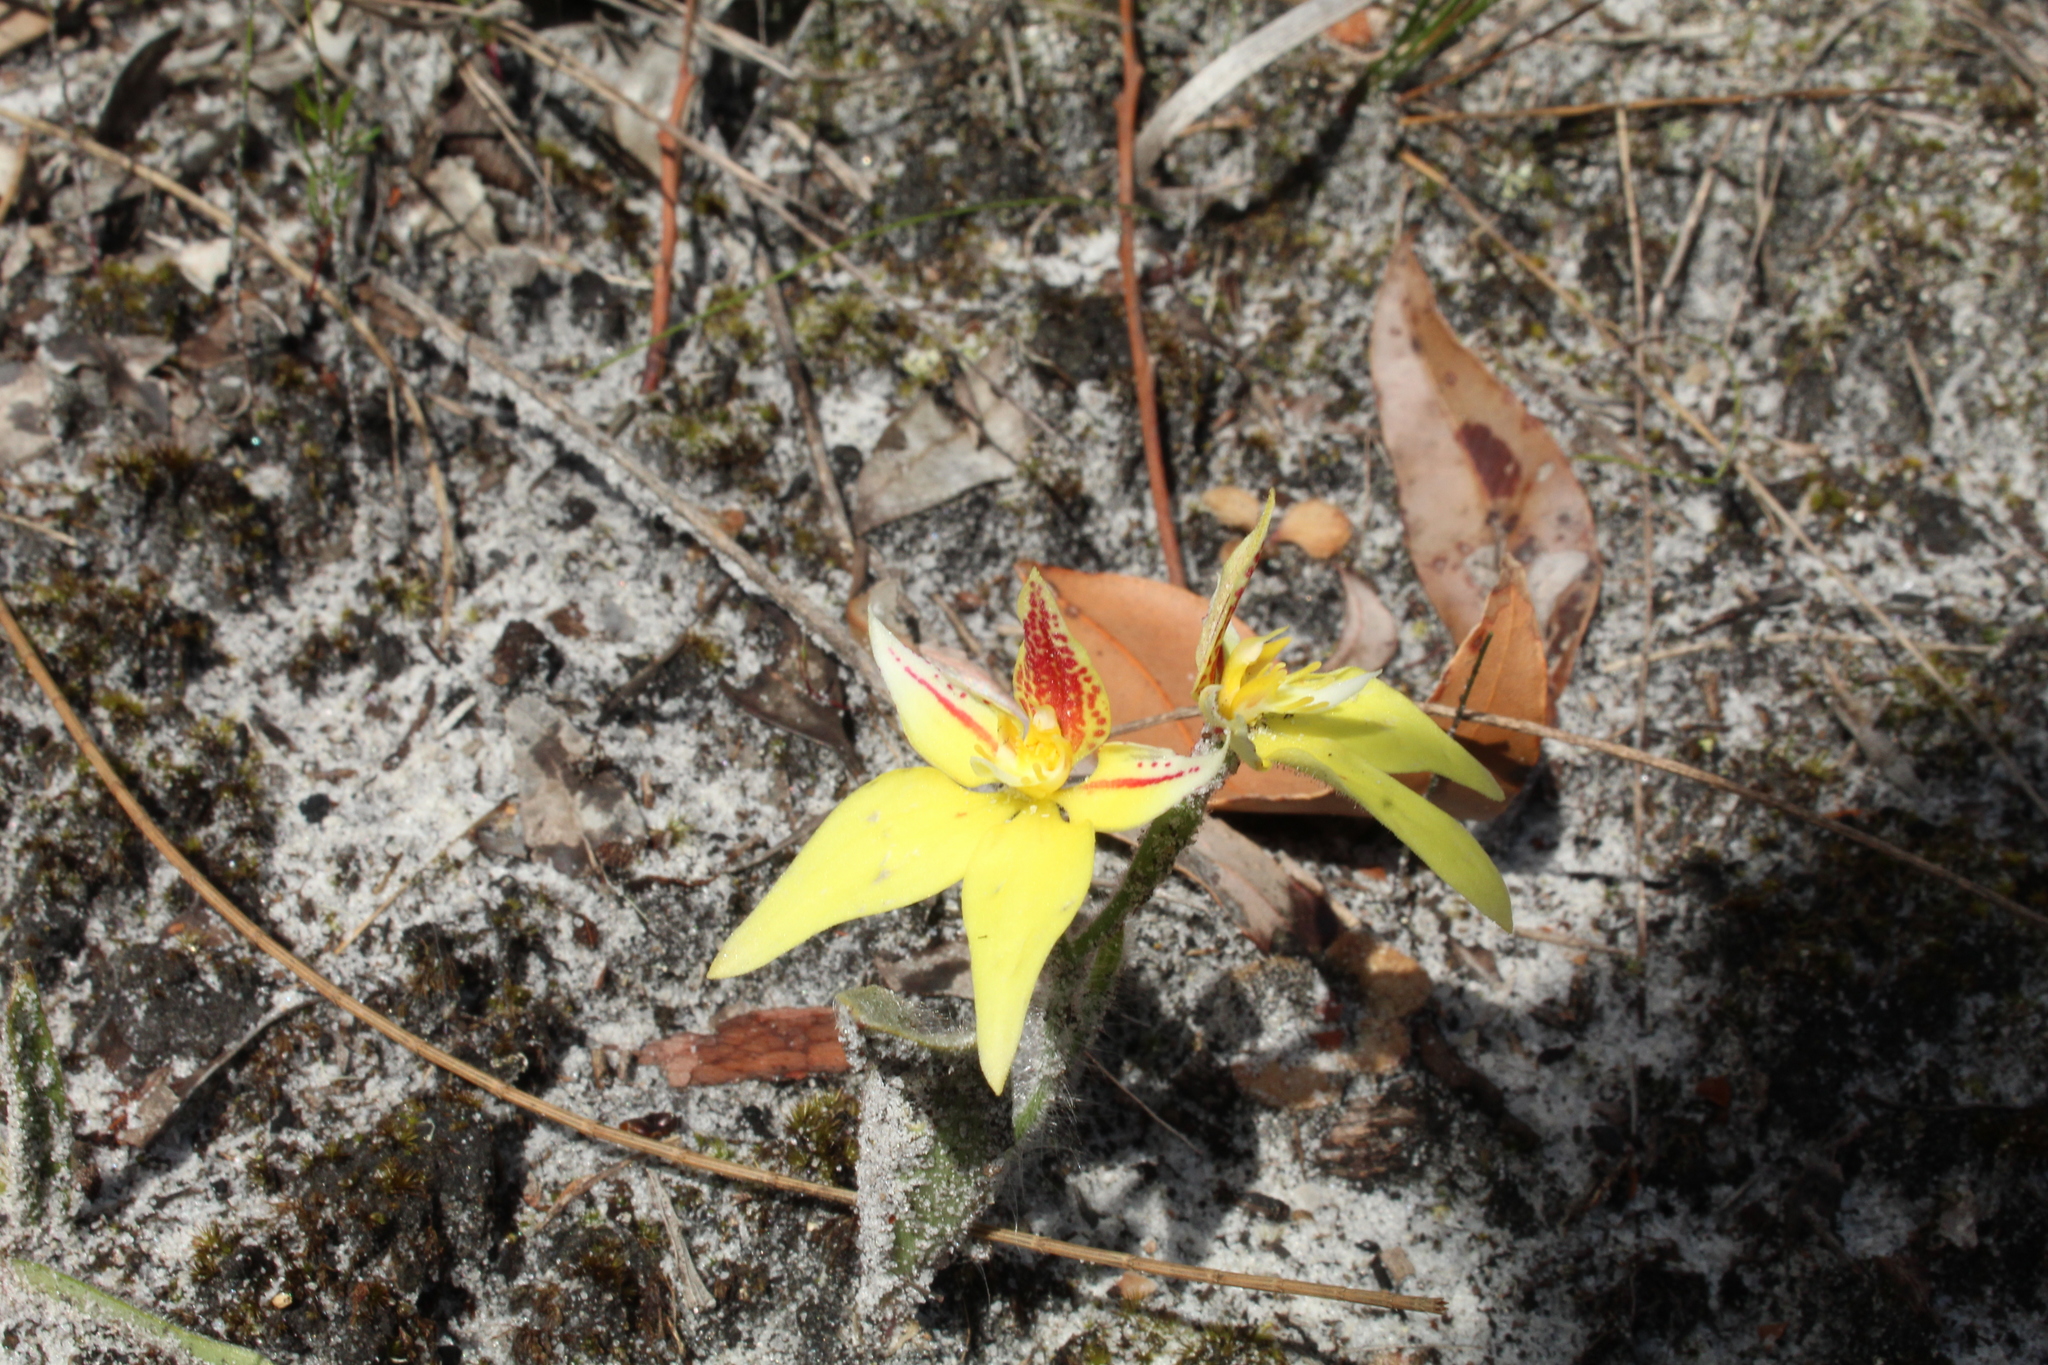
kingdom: Plantae
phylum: Tracheophyta
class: Liliopsida
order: Asparagales
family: Orchidaceae
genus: Caladenia
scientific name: Caladenia flava
